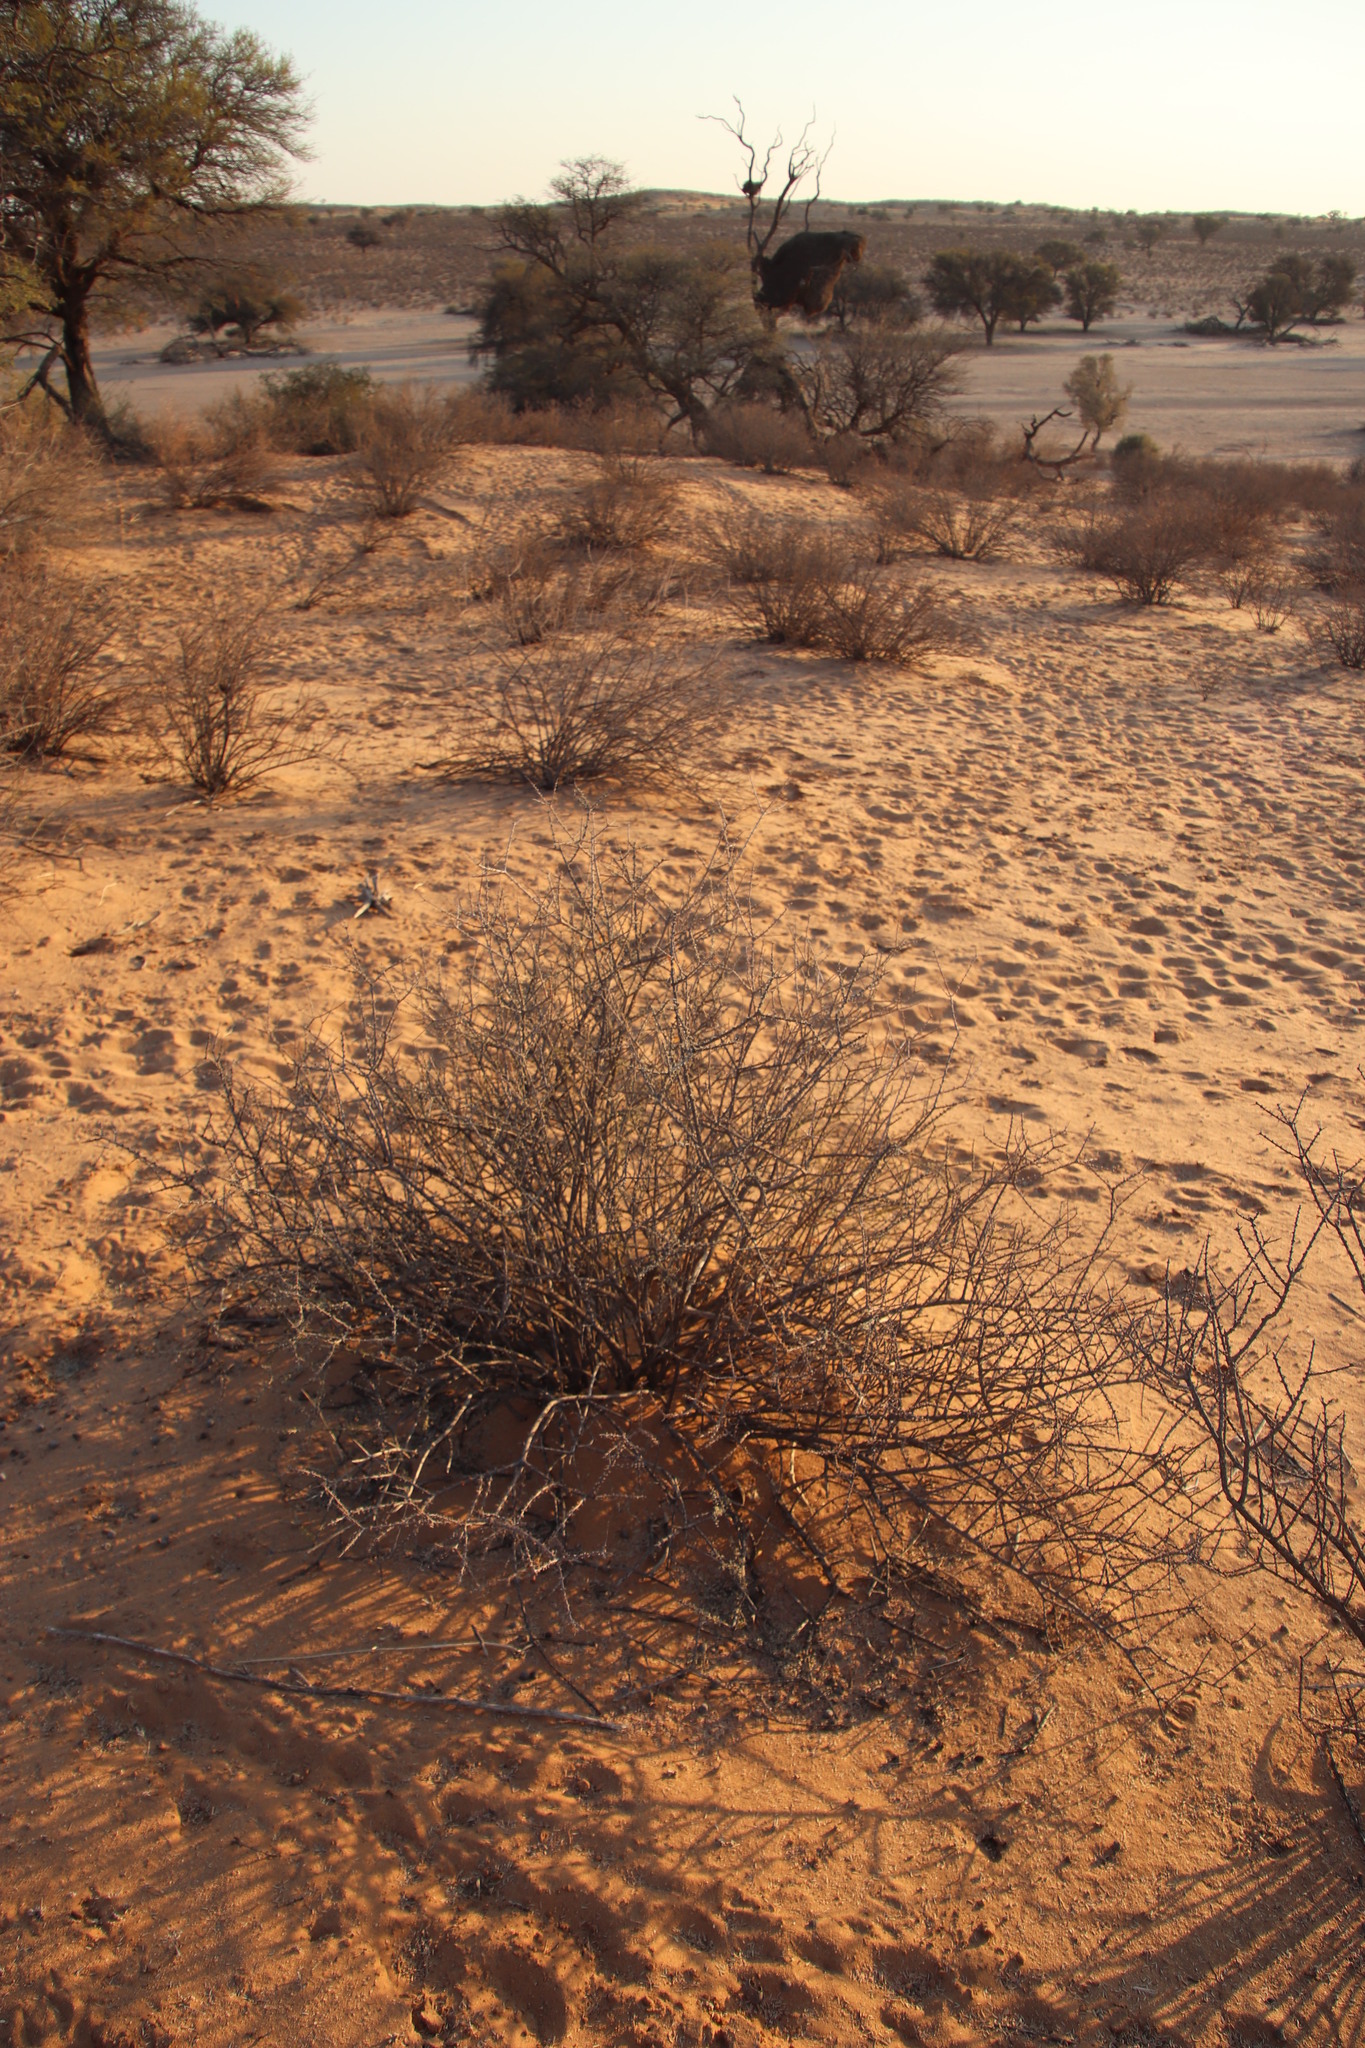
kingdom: Plantae
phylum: Tracheophyta
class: Magnoliopsida
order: Lamiales
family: Bignoniaceae
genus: Rhigozum
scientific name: Rhigozum trichotomum
